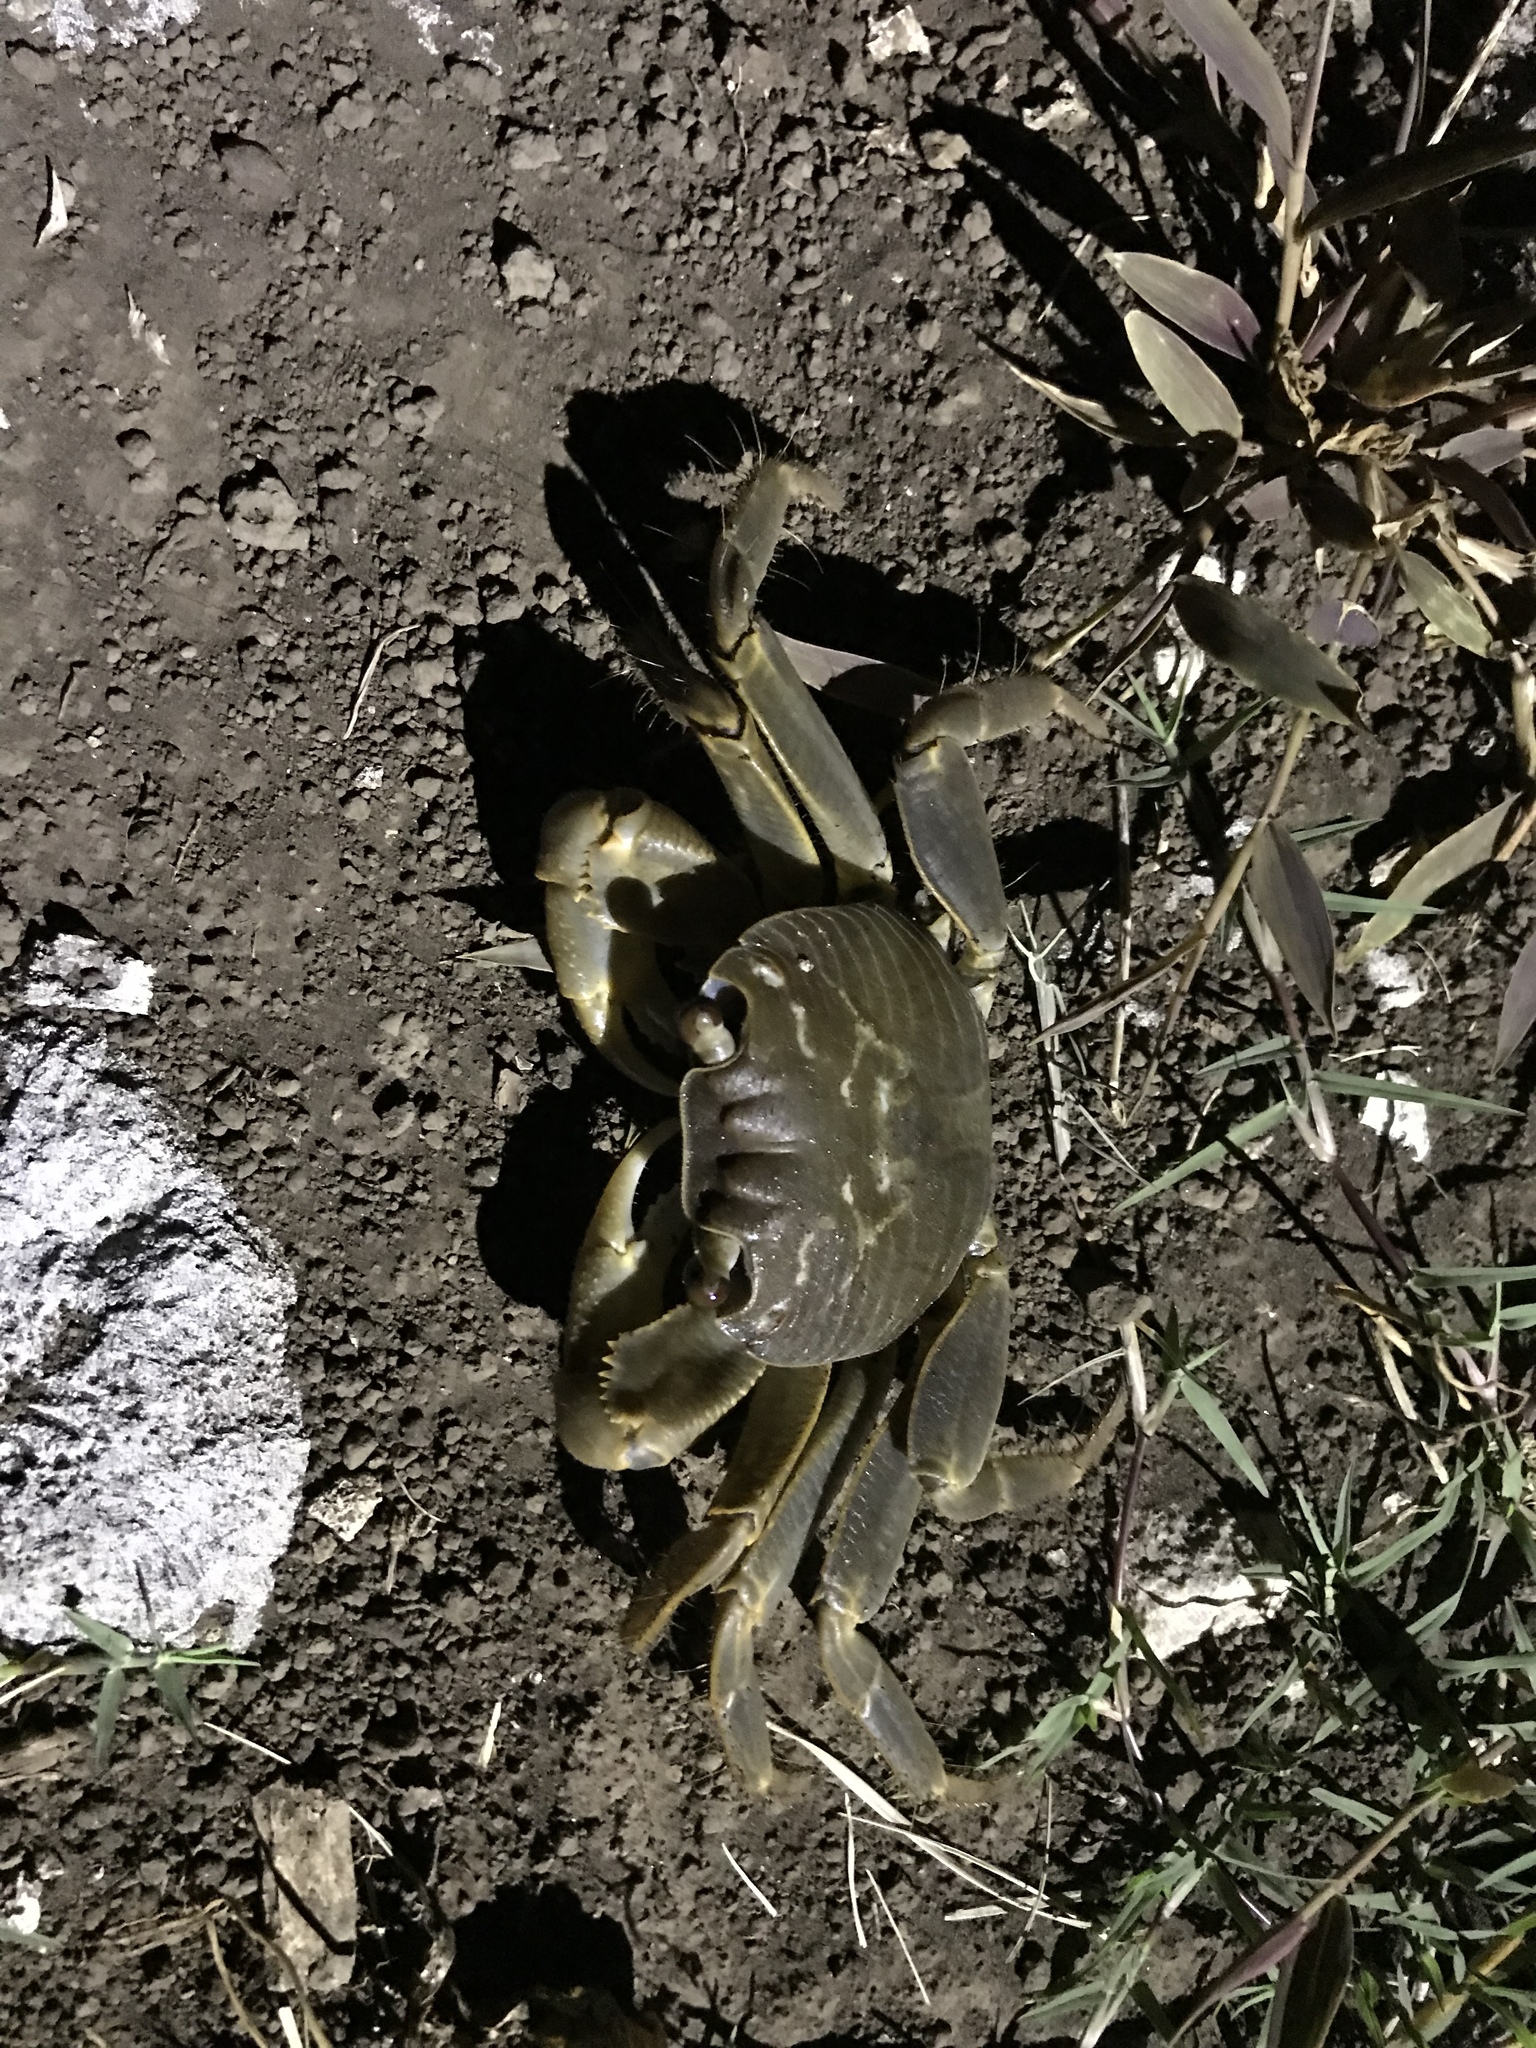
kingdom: Animalia
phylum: Arthropoda
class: Malacostraca
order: Decapoda
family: Grapsidae
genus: Geograpsus
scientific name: Geograpsus crinipes
